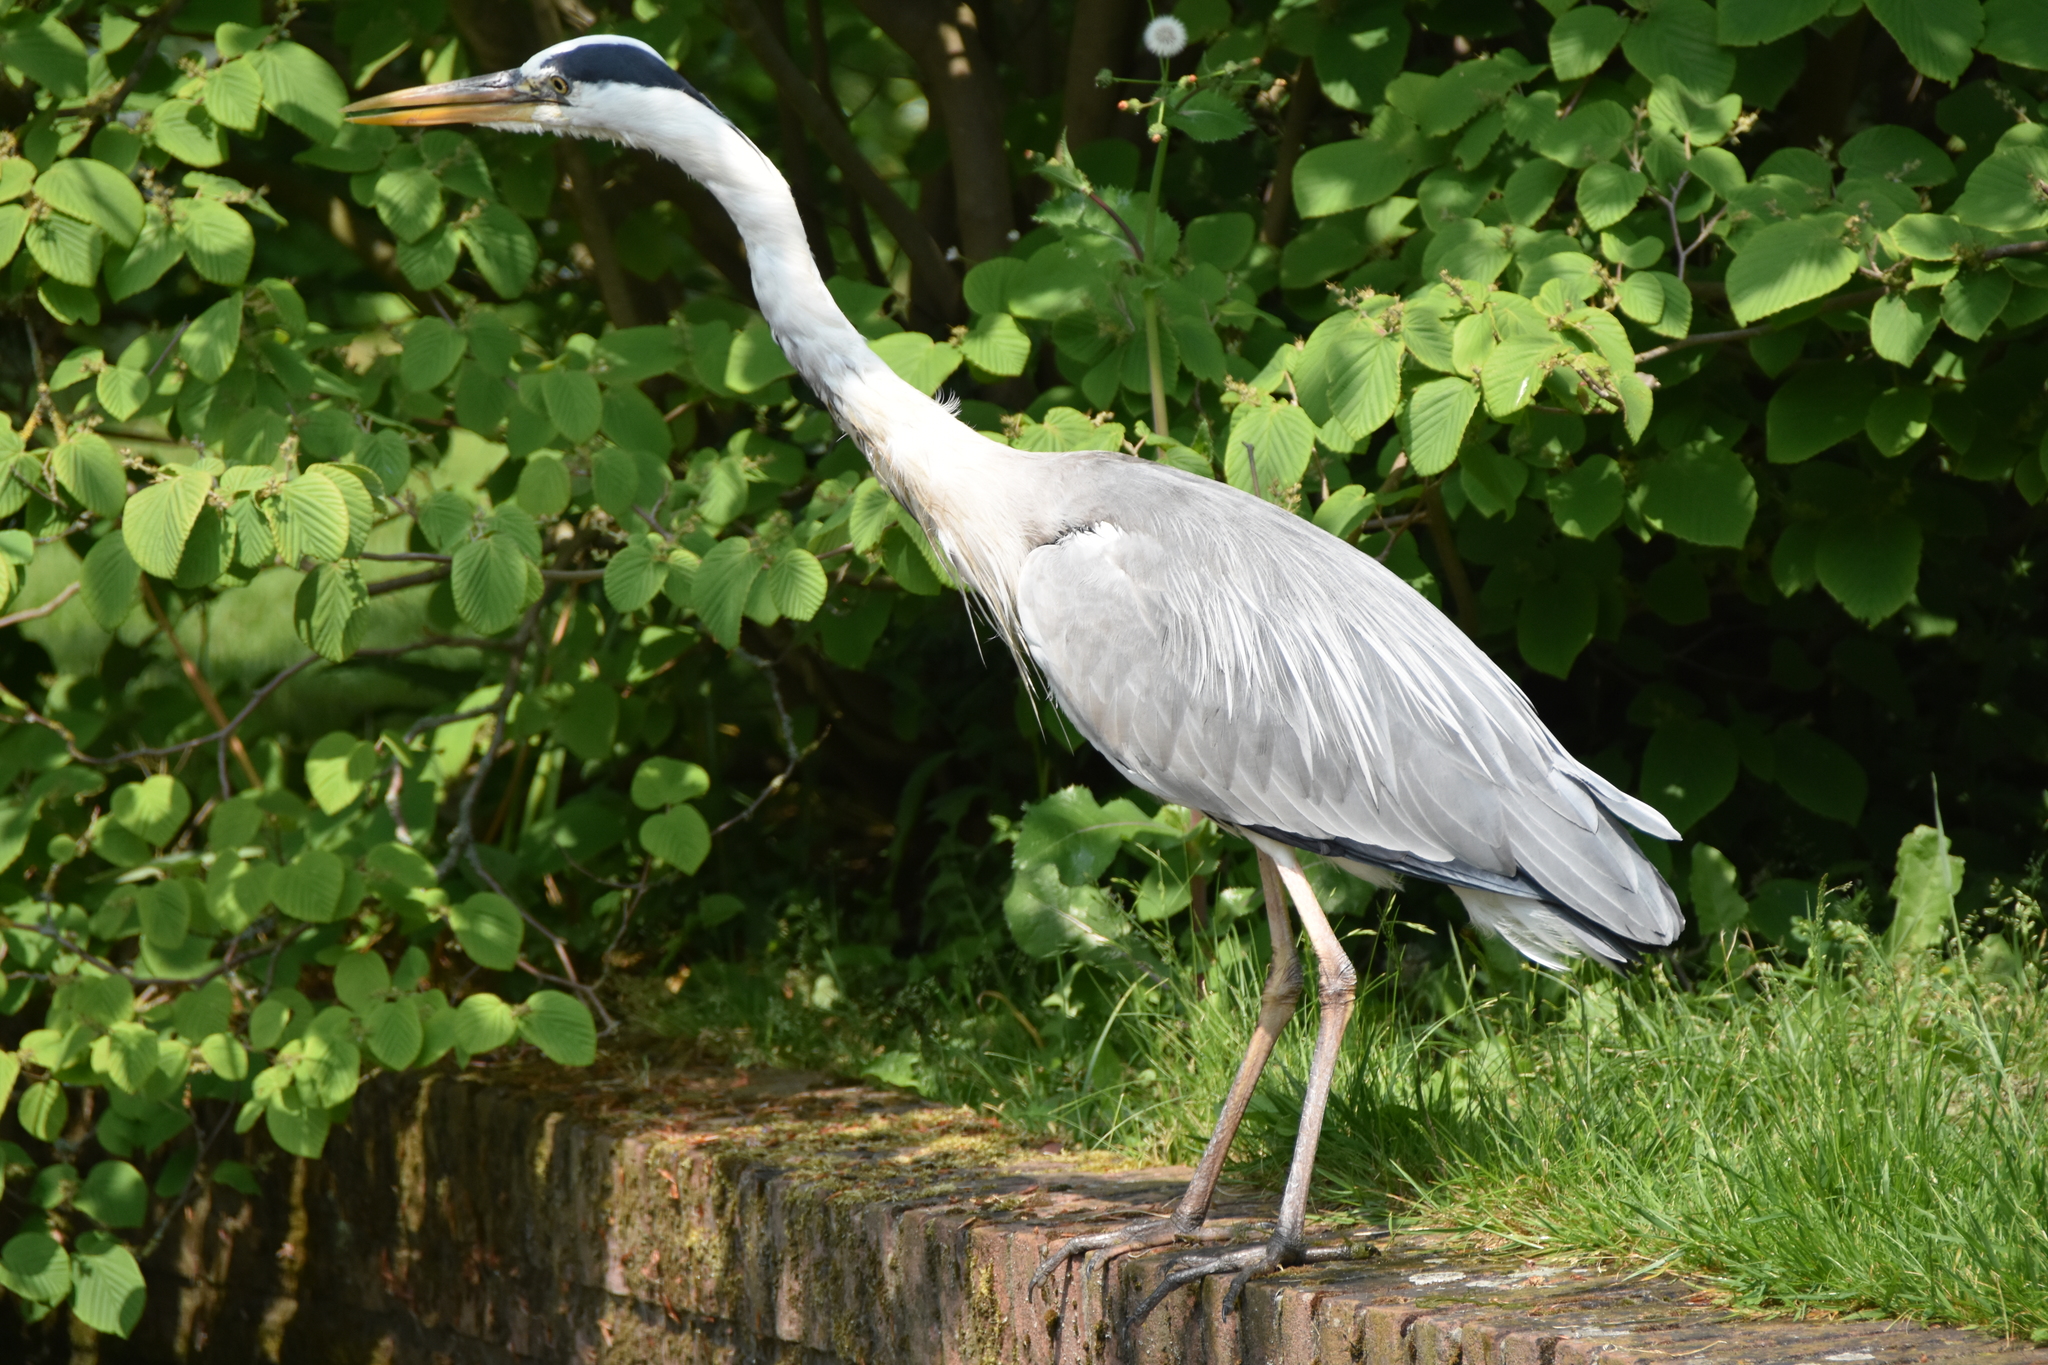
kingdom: Animalia
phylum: Chordata
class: Aves
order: Pelecaniformes
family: Ardeidae
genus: Ardea
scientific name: Ardea cinerea
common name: Grey heron
